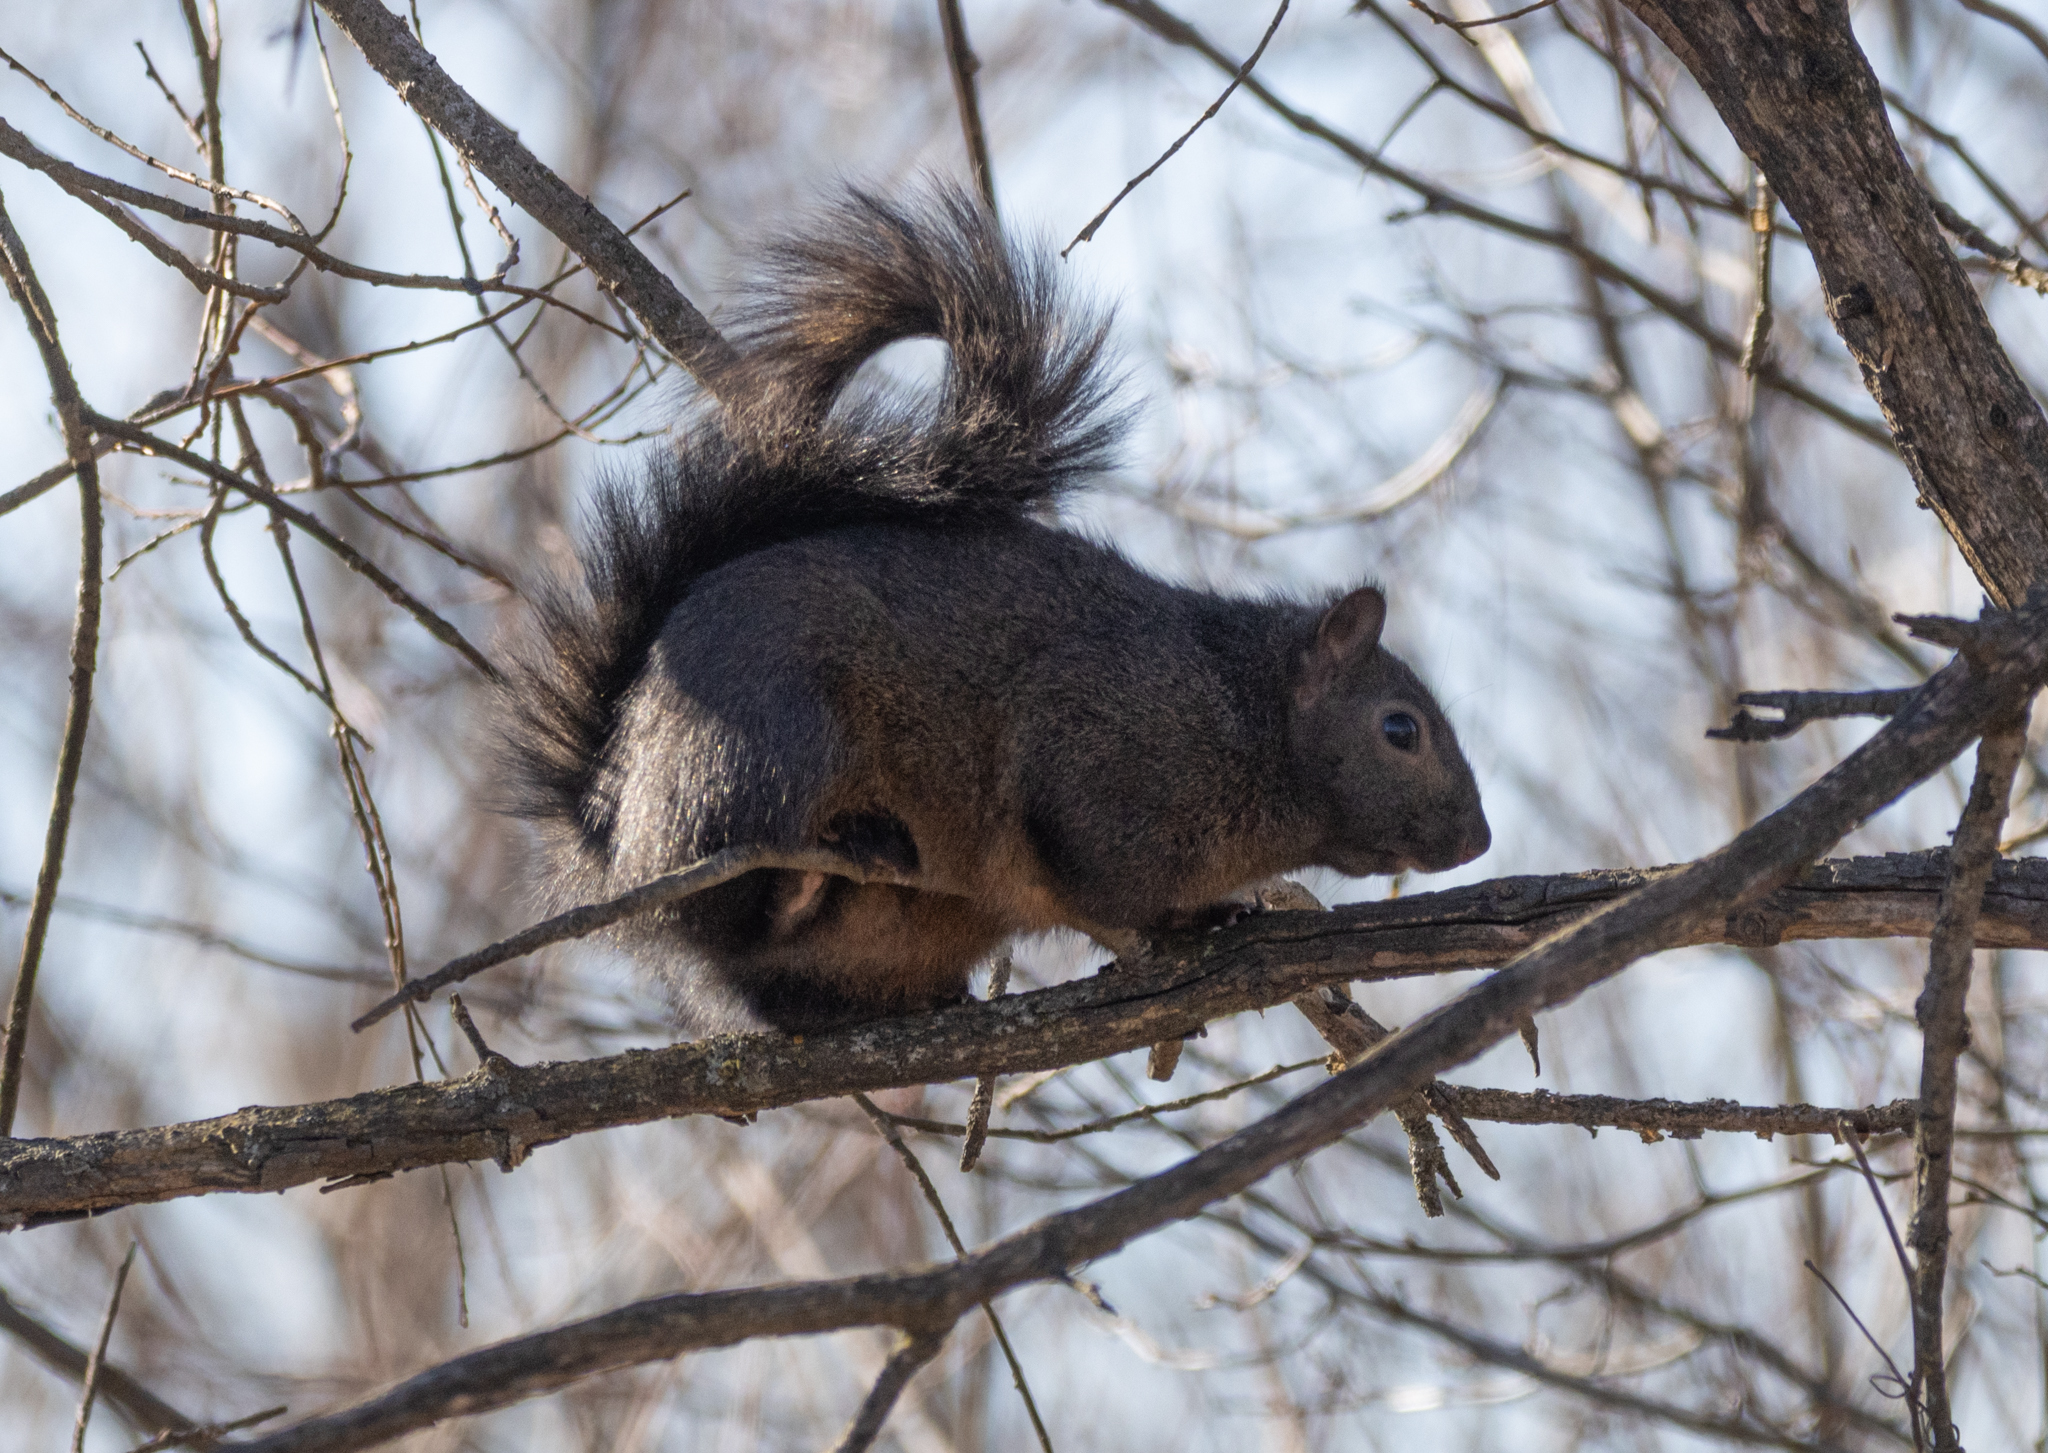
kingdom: Animalia
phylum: Chordata
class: Mammalia
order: Rodentia
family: Sciuridae
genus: Sciurus
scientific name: Sciurus carolinensis
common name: Eastern gray squirrel
